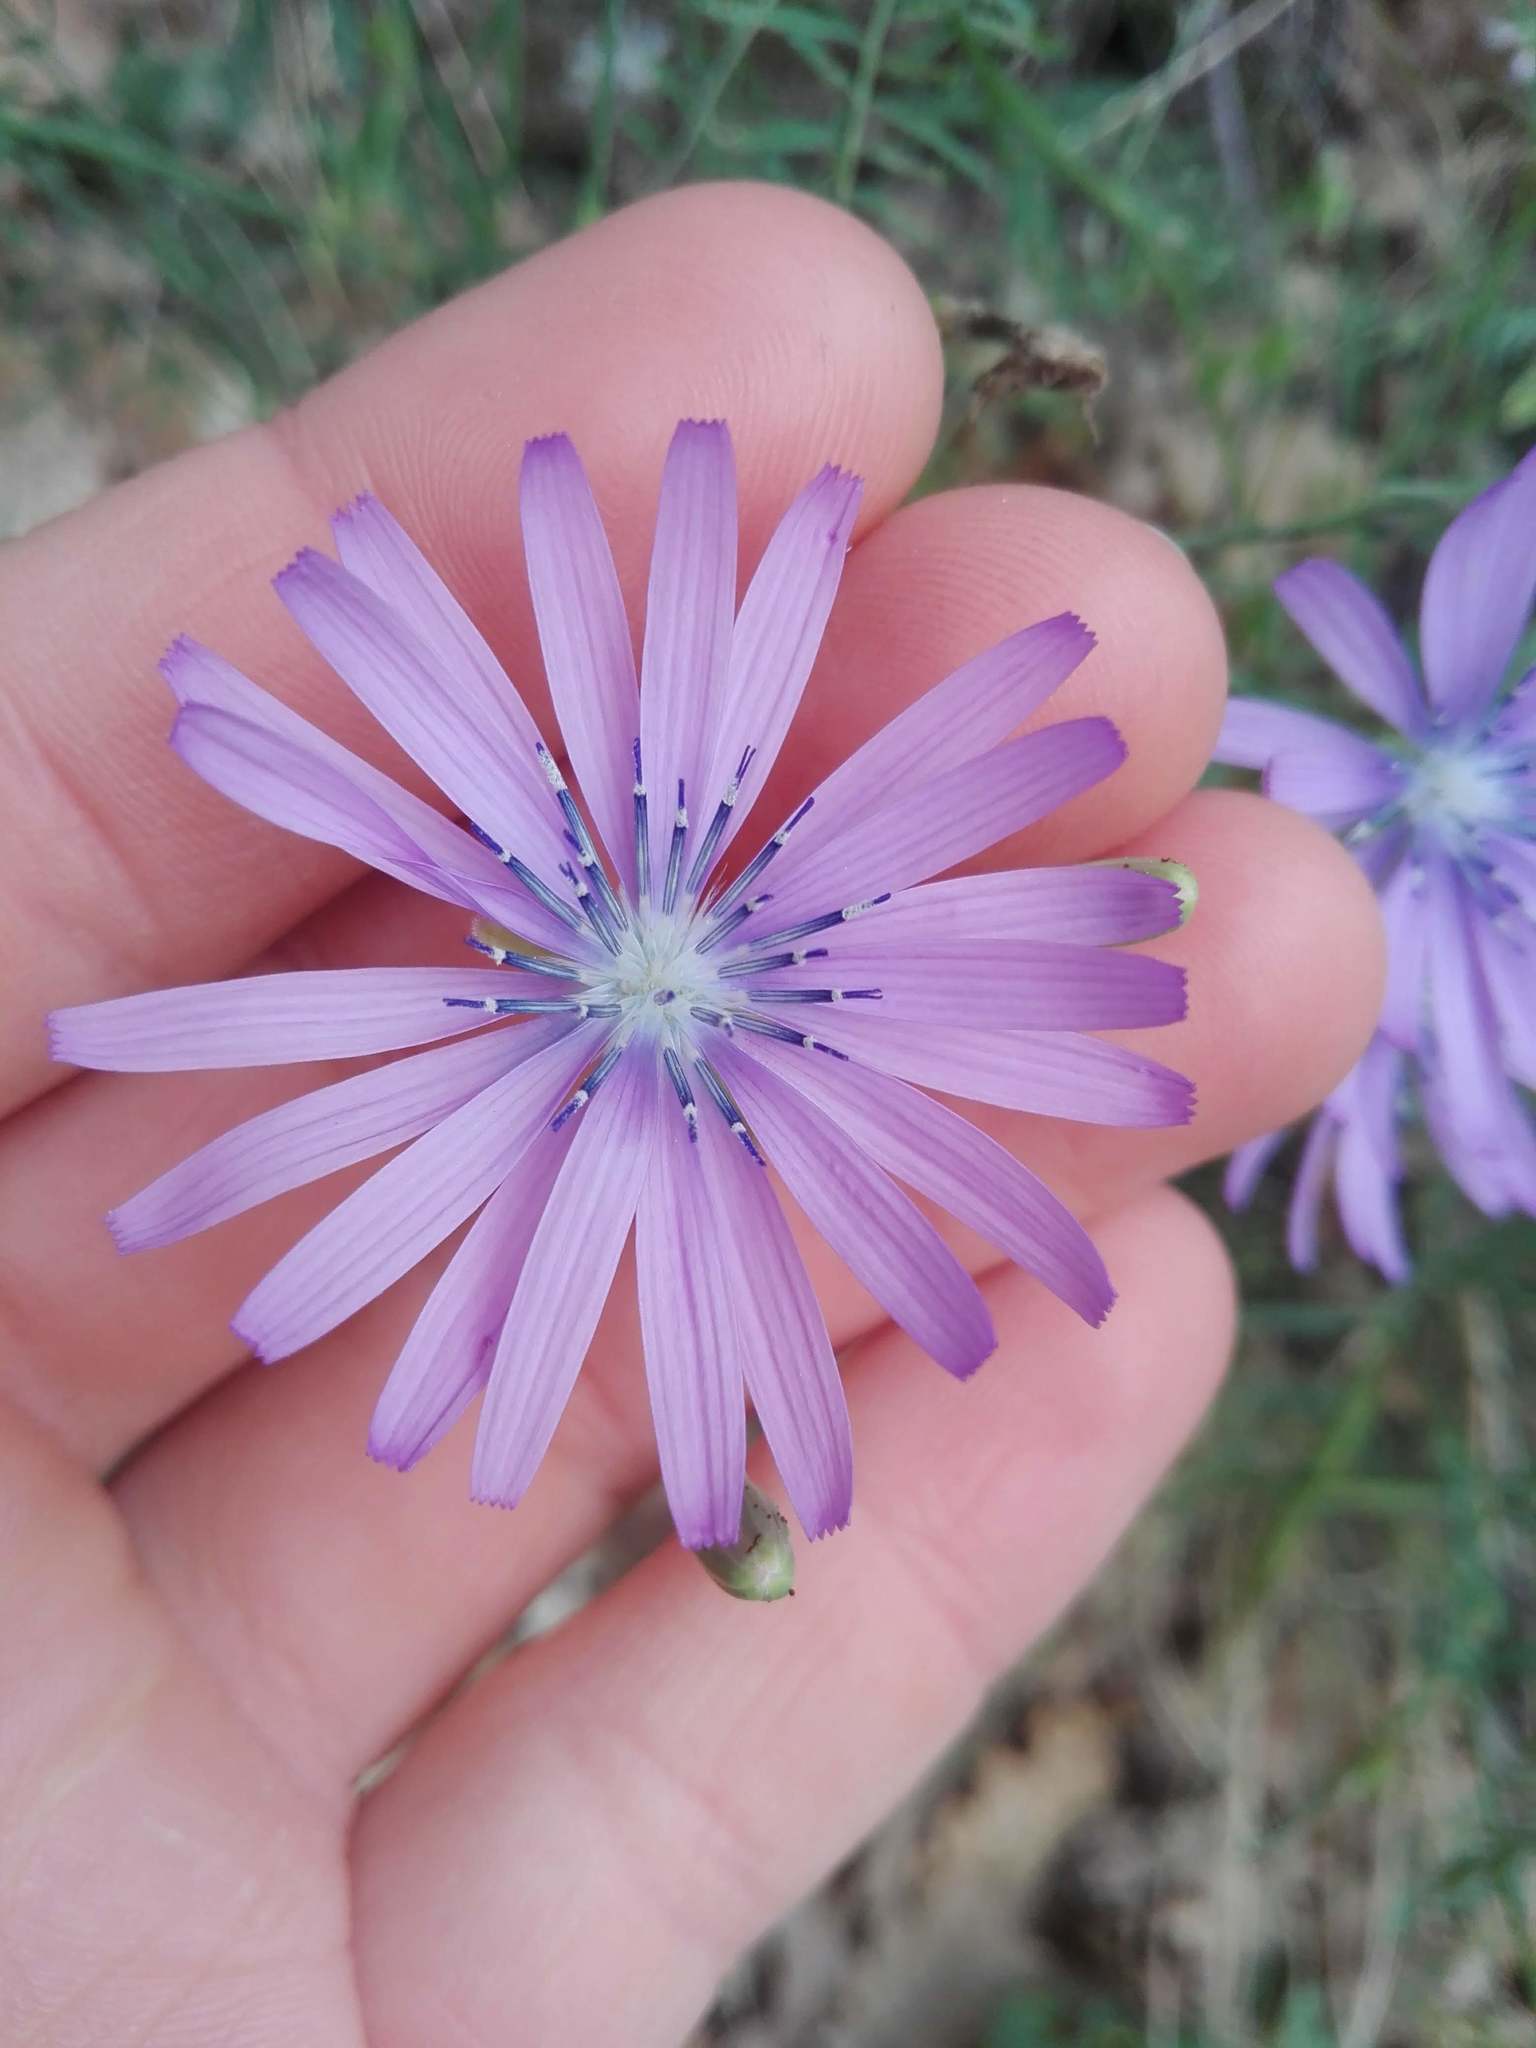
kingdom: Plantae
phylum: Tracheophyta
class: Magnoliopsida
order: Asterales
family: Asteraceae
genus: Lactuca
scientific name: Lactuca perennis
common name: Mountain lettuce
